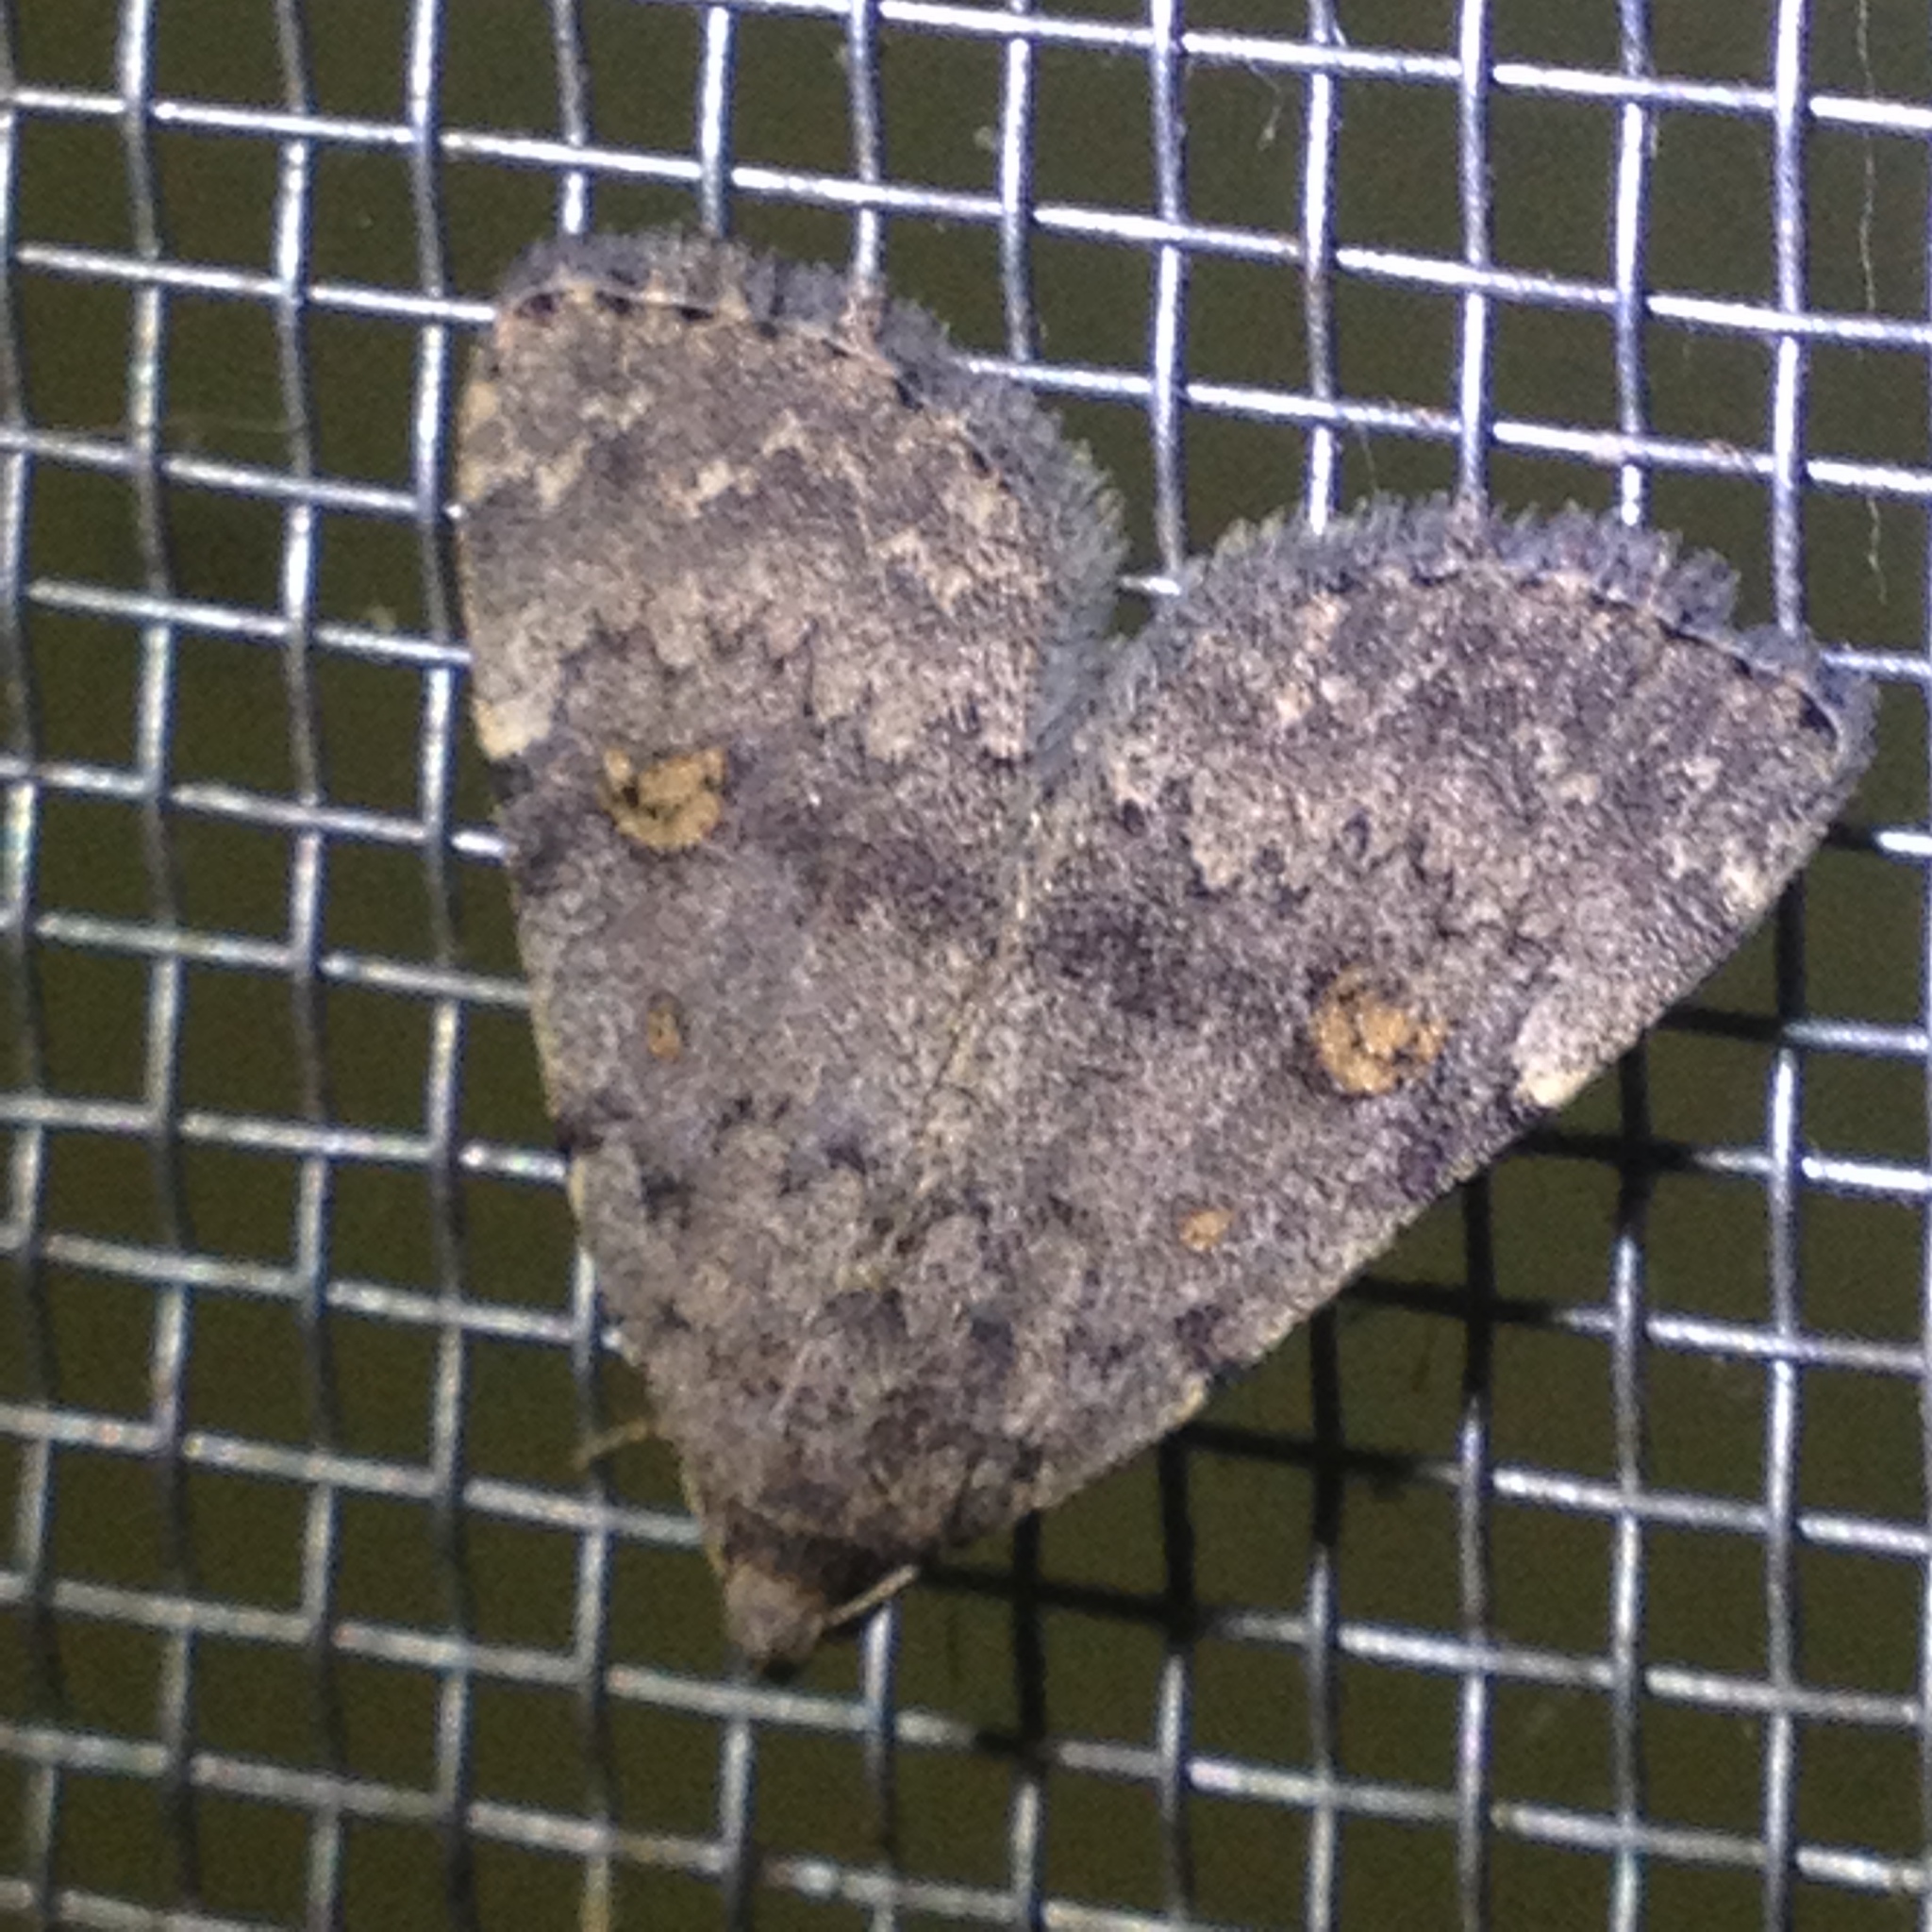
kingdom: Animalia
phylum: Arthropoda
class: Insecta
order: Lepidoptera
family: Erebidae
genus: Idia
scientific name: Idia aemula
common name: Common idia moth
